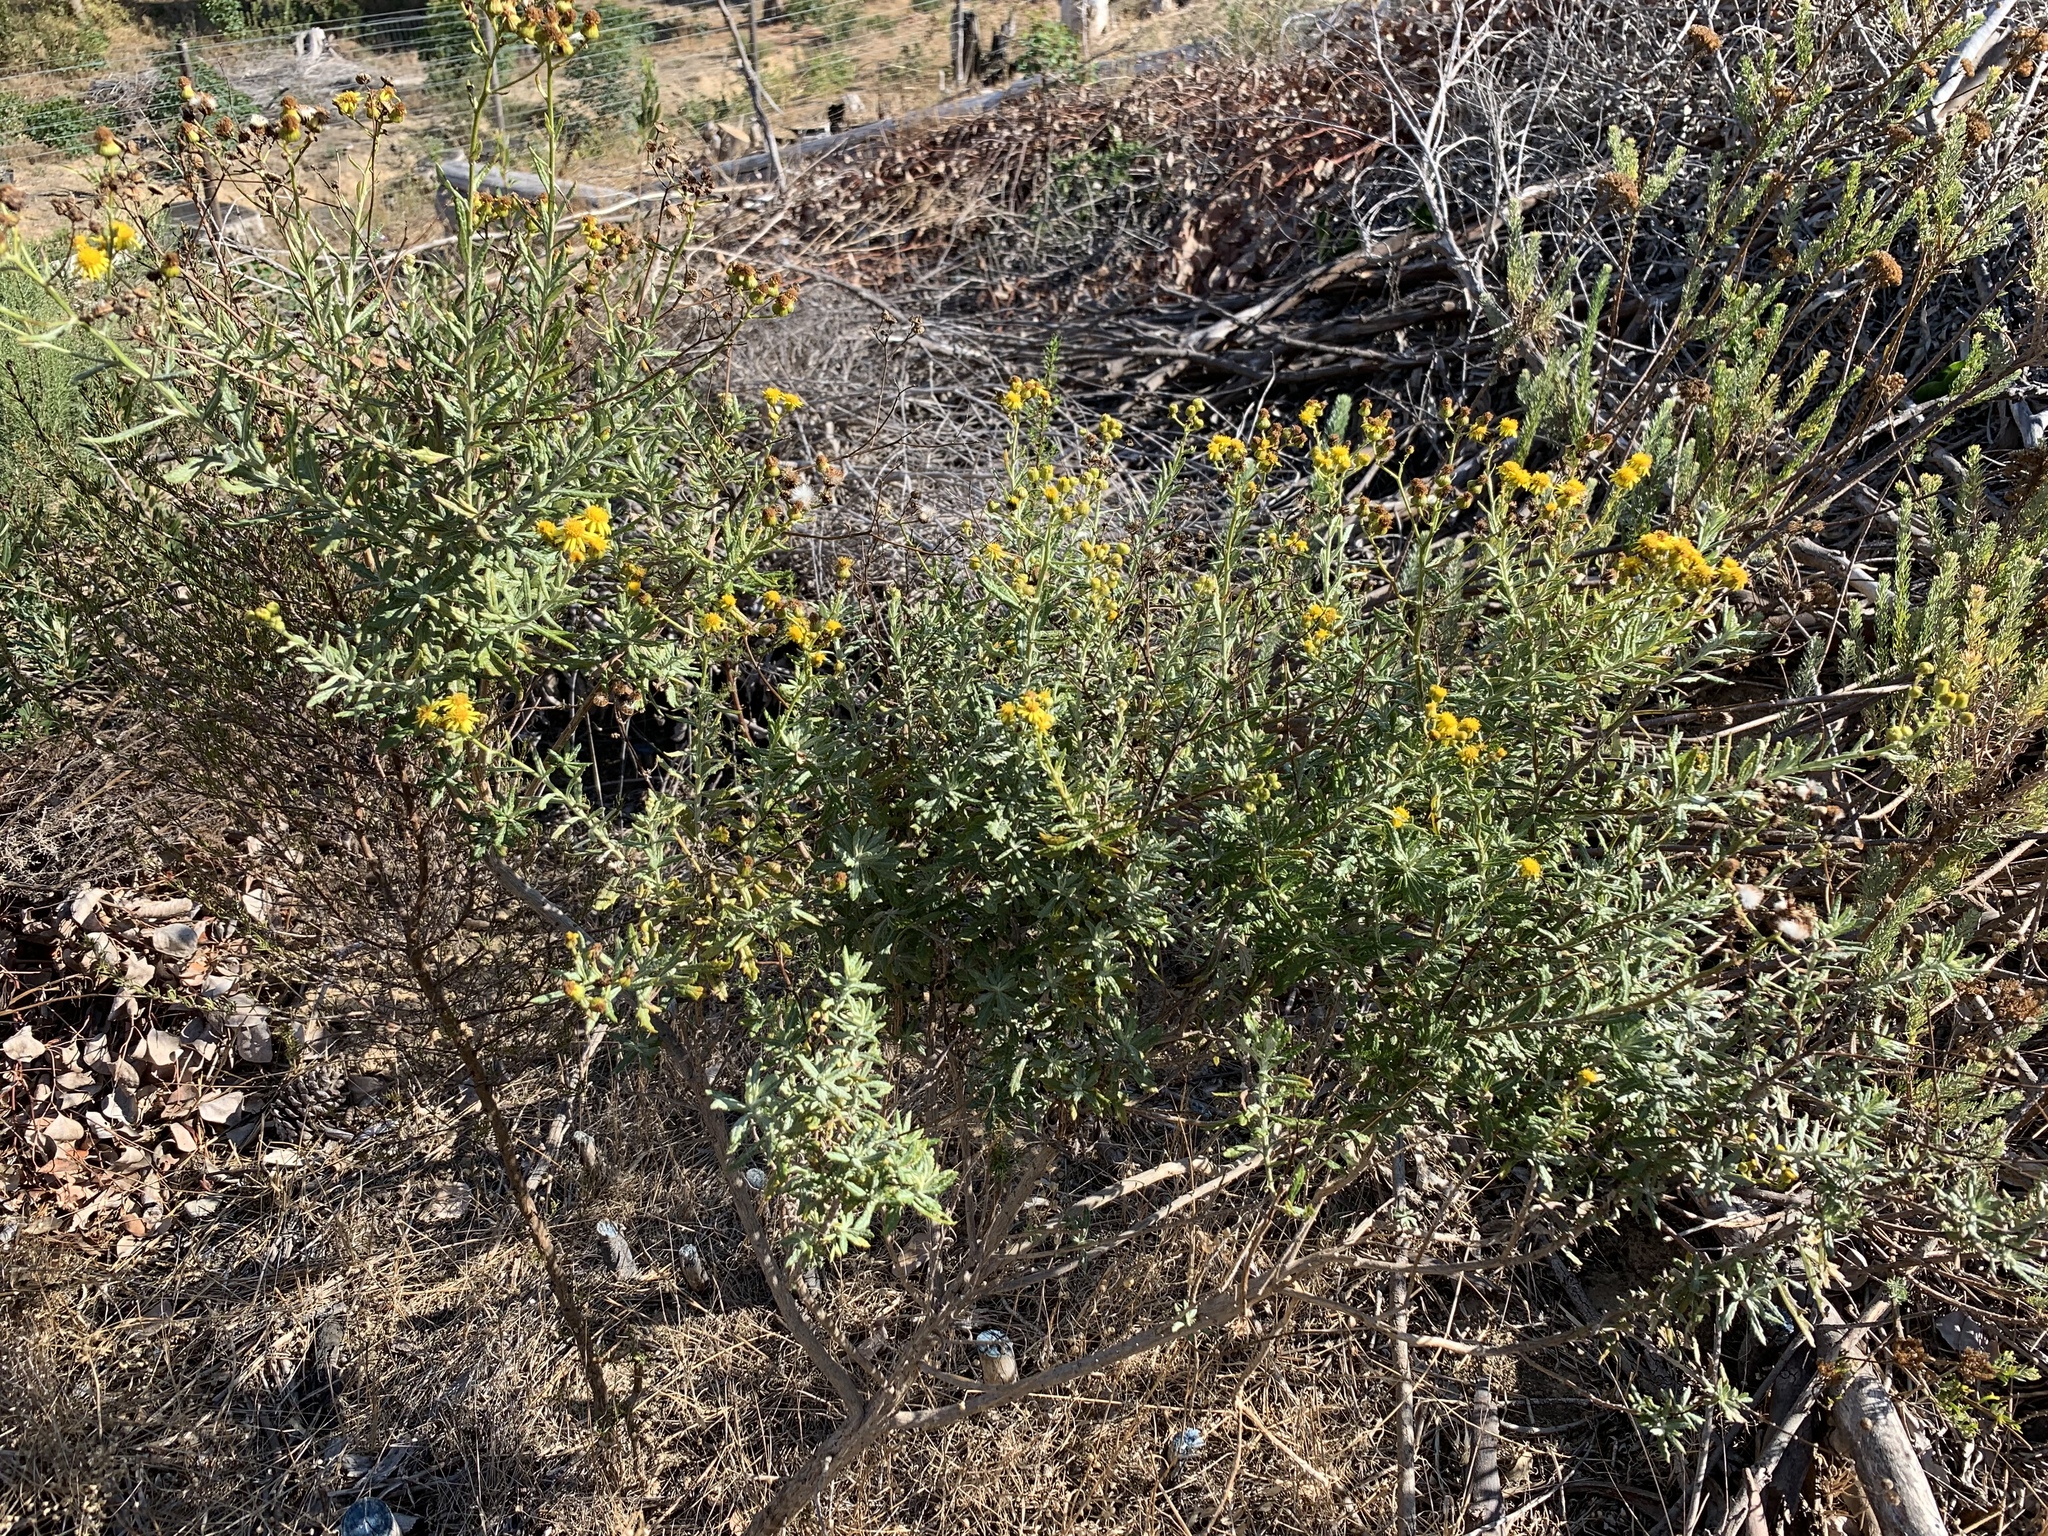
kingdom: Plantae
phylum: Tracheophyta
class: Magnoliopsida
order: Asterales
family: Asteraceae
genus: Senecio
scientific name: Senecio pterophorus
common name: Shoddy ragwort
